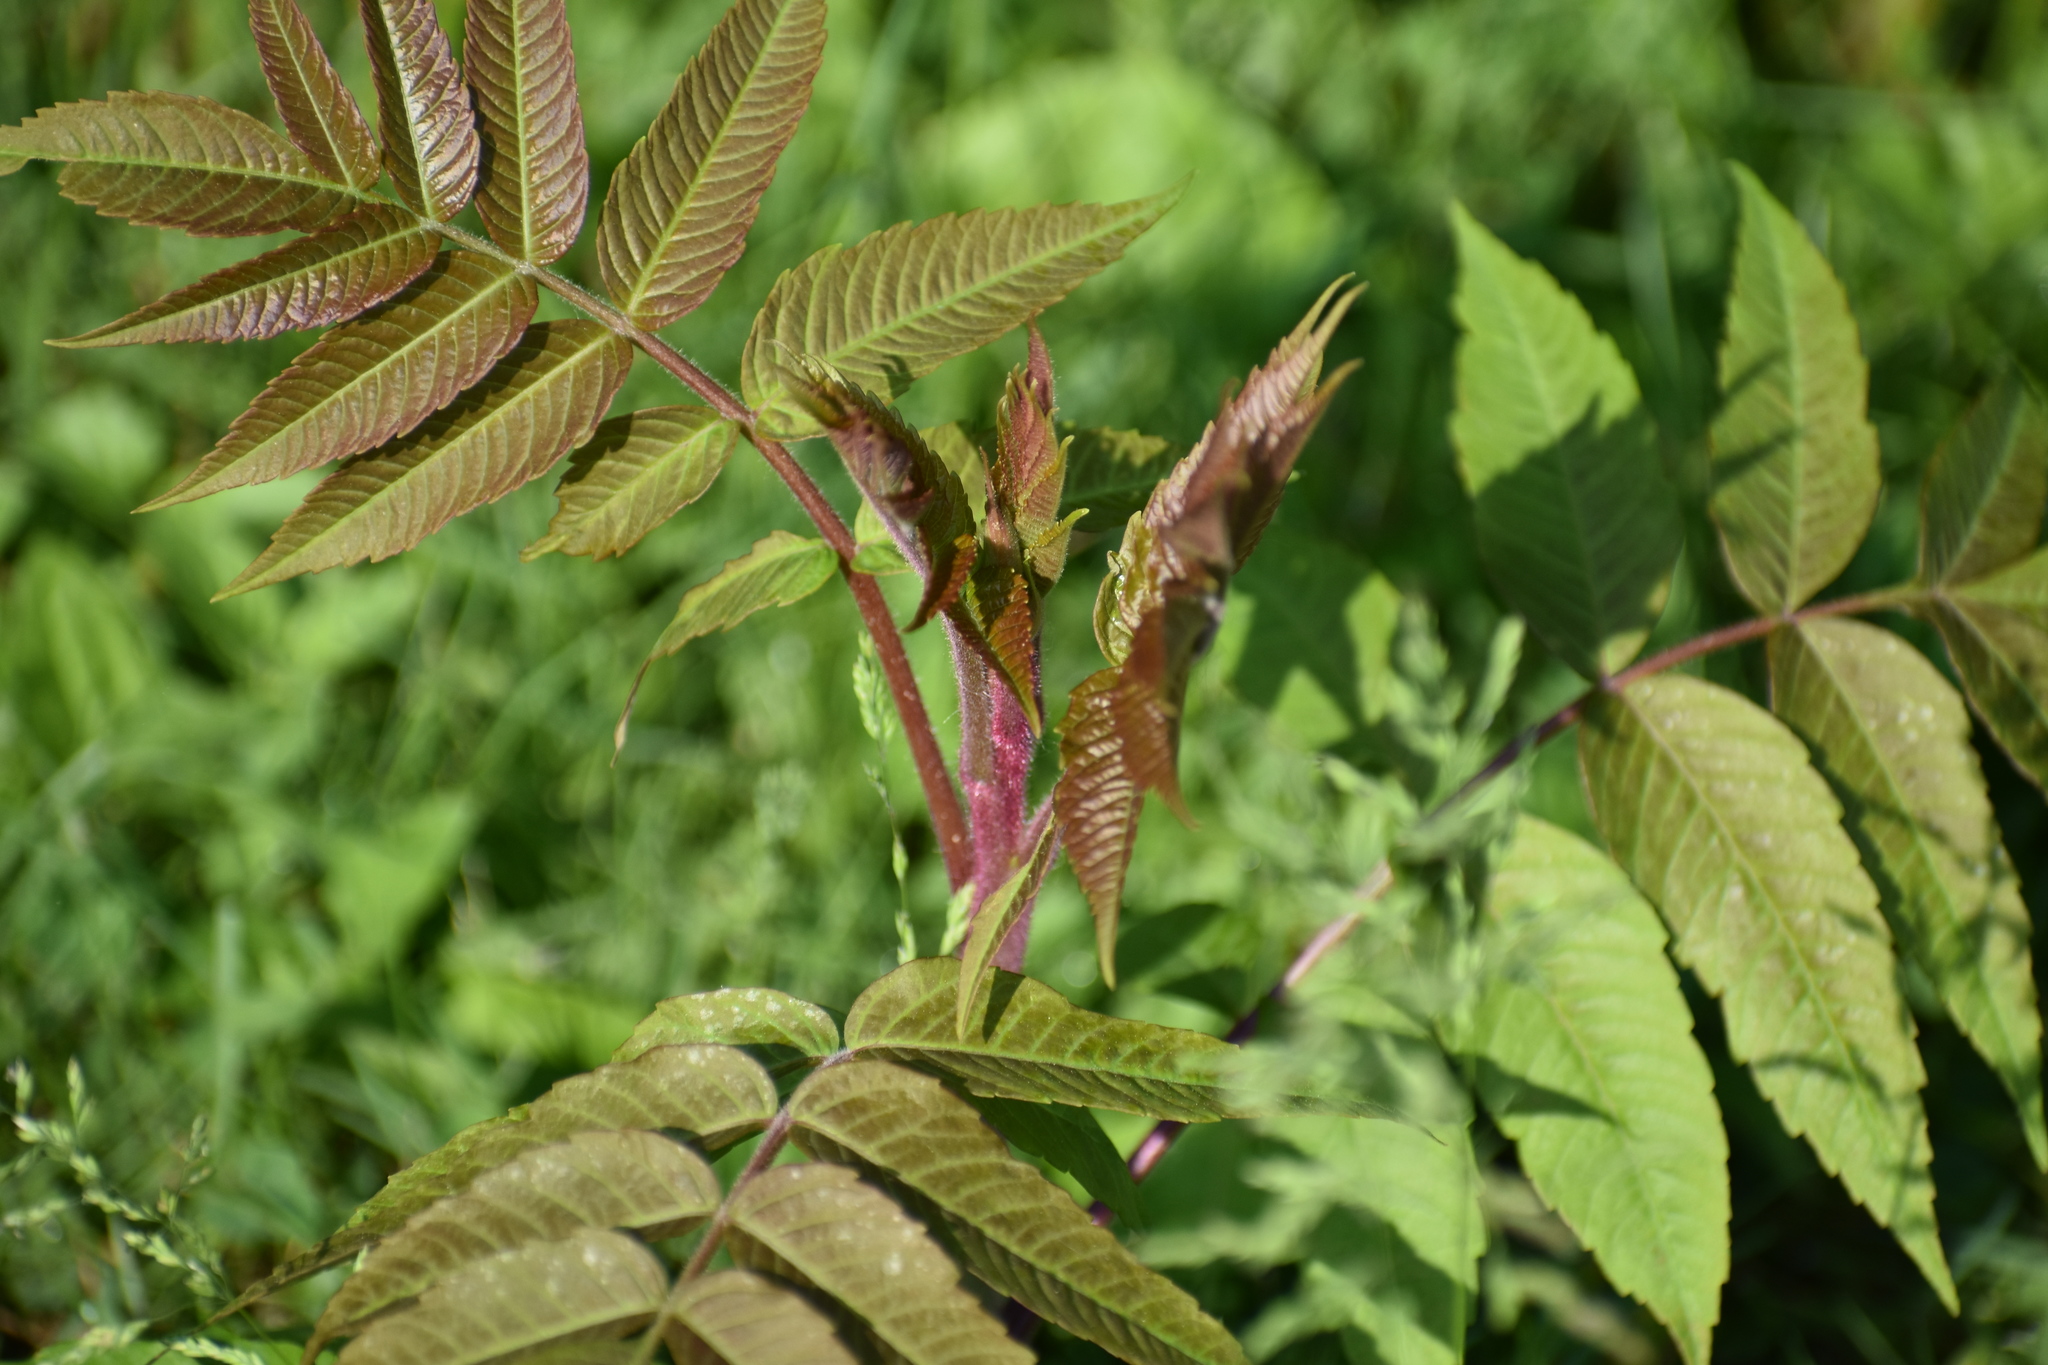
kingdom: Plantae
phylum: Tracheophyta
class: Magnoliopsida
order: Sapindales
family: Anacardiaceae
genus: Rhus
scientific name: Rhus typhina
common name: Staghorn sumac
